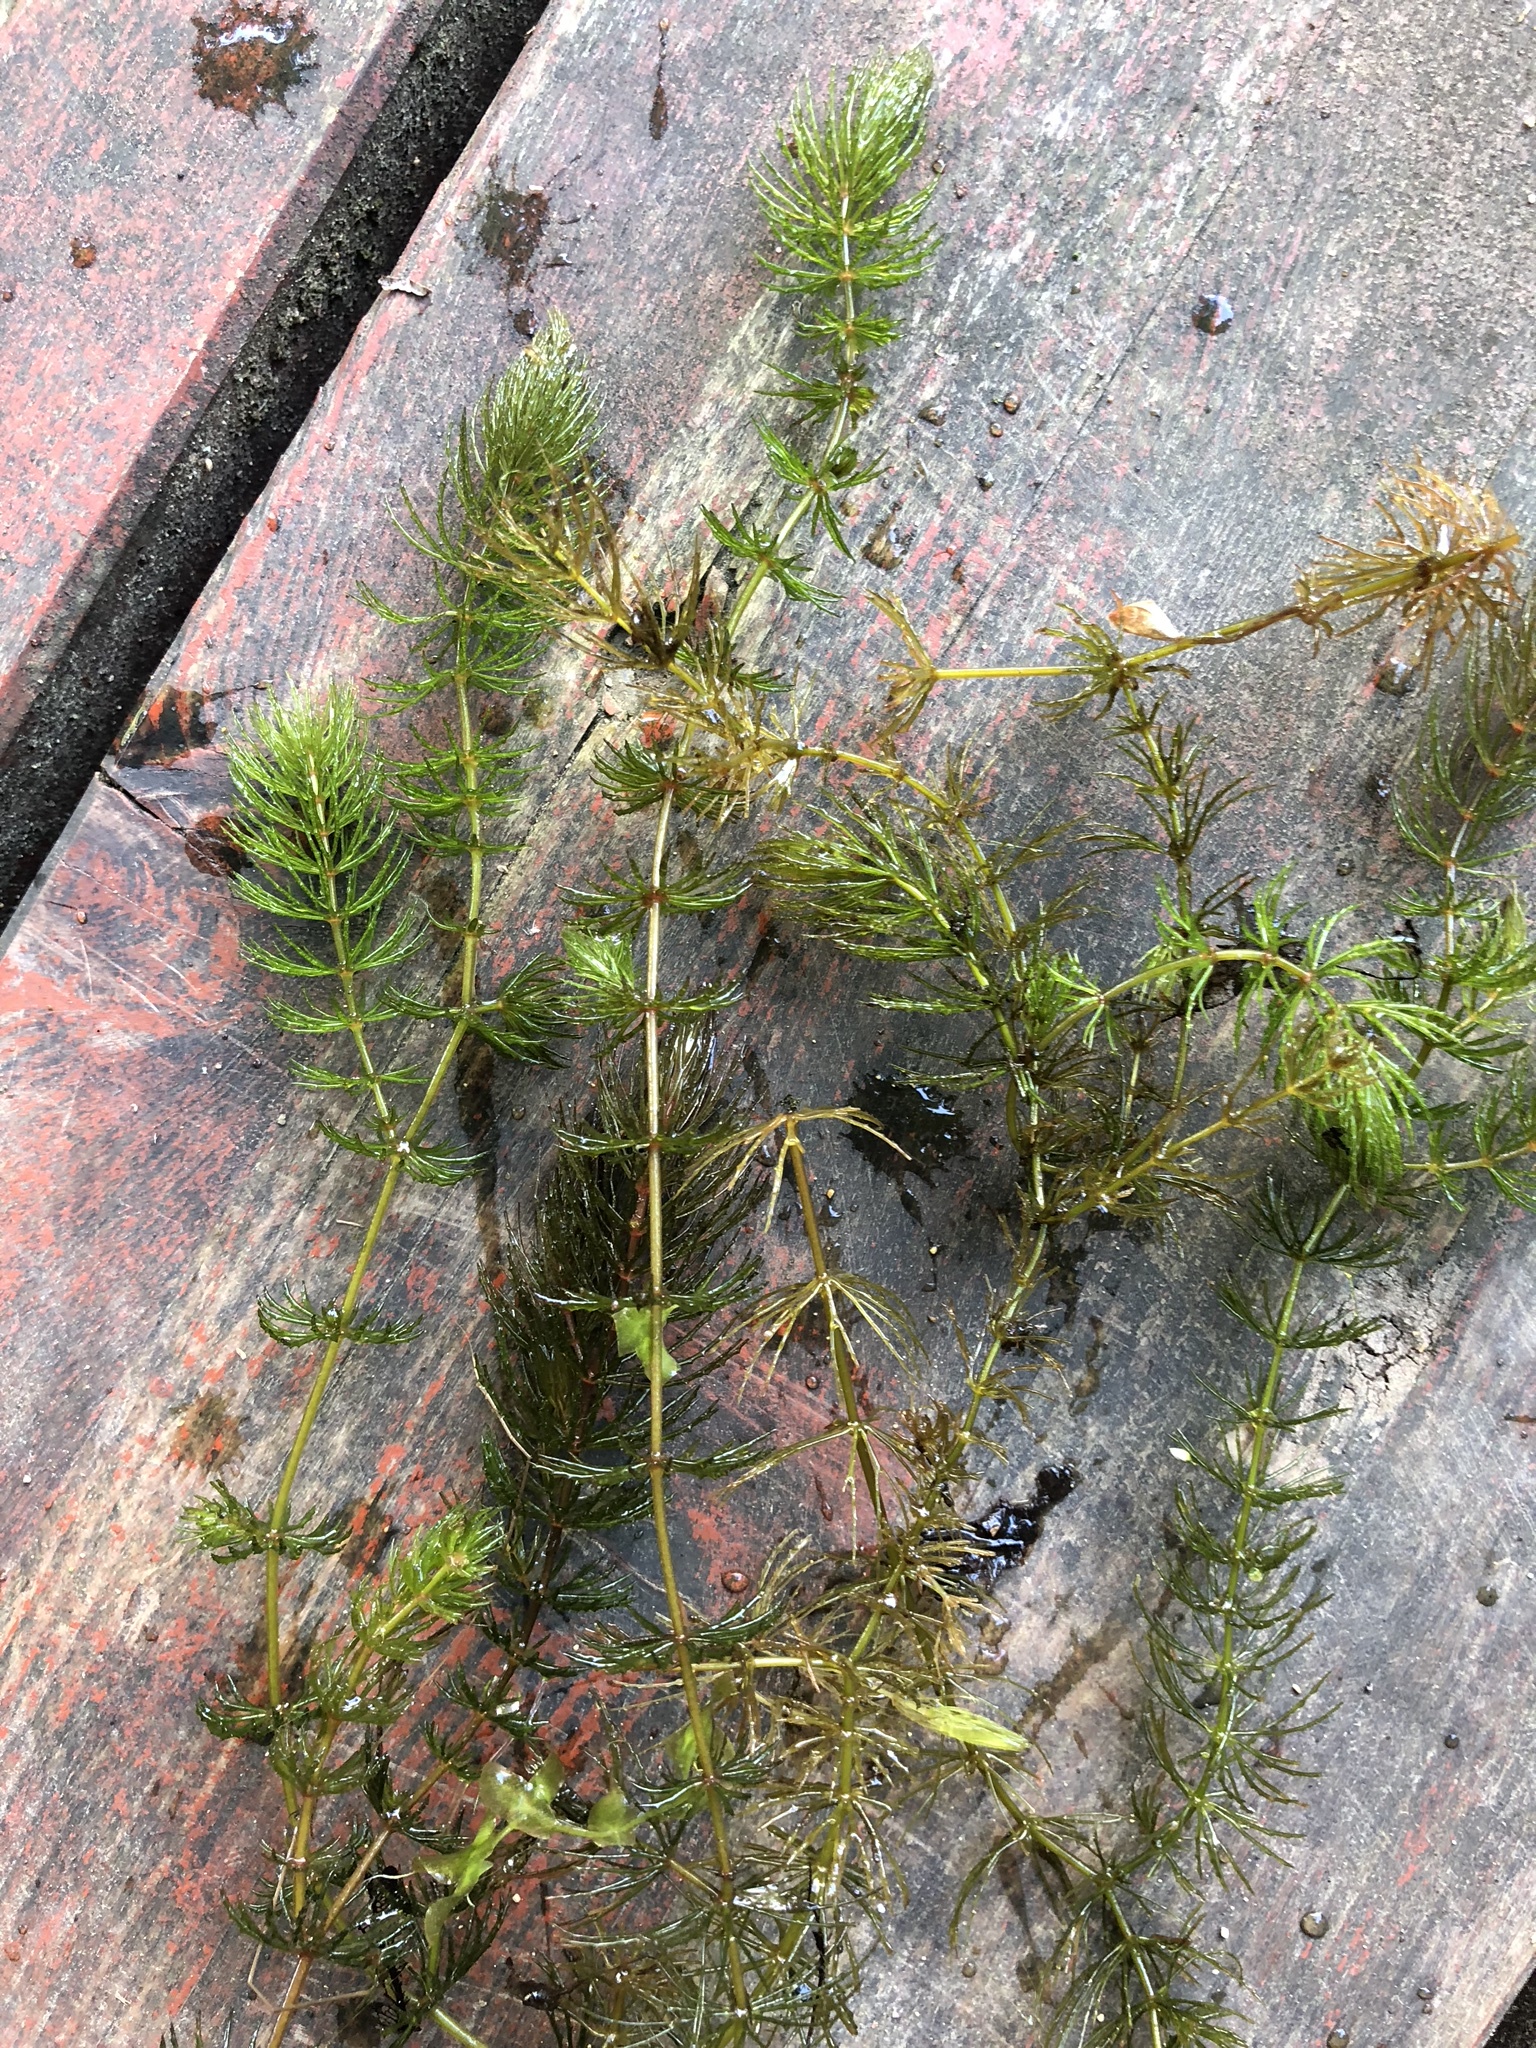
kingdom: Plantae
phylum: Tracheophyta
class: Magnoliopsida
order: Ceratophyllales
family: Ceratophyllaceae
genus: Ceratophyllum
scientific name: Ceratophyllum demersum
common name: Rigid hornwort
